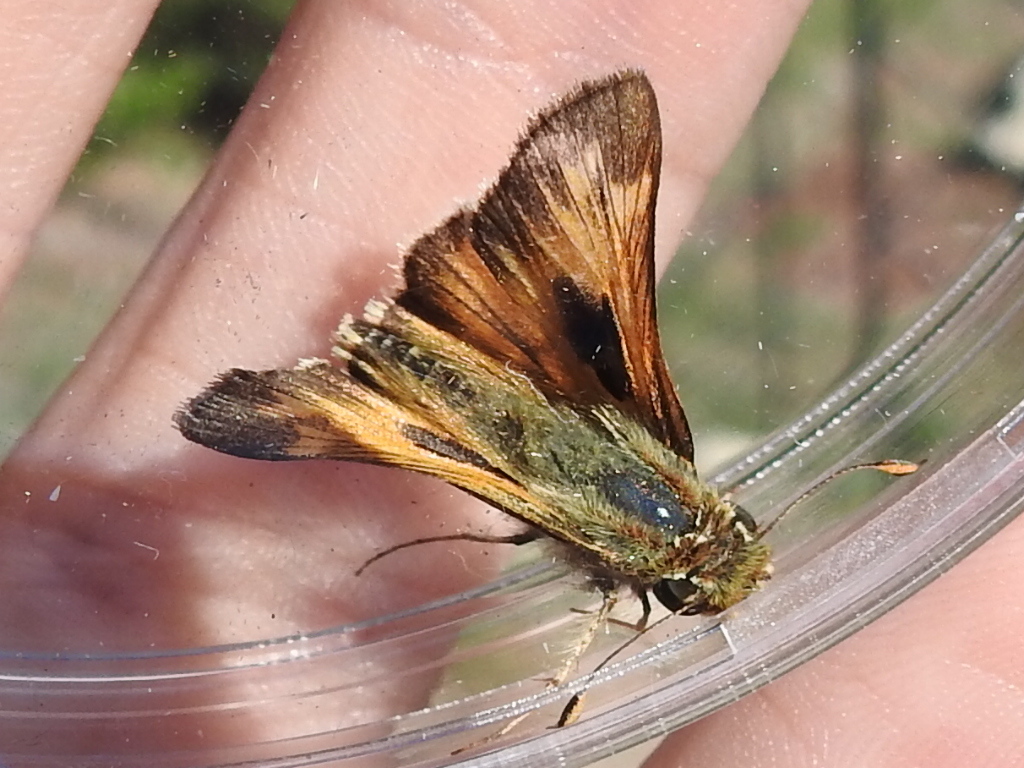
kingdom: Animalia
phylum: Arthropoda
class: Insecta
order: Lepidoptera
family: Hesperiidae
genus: Atalopedes
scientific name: Atalopedes
